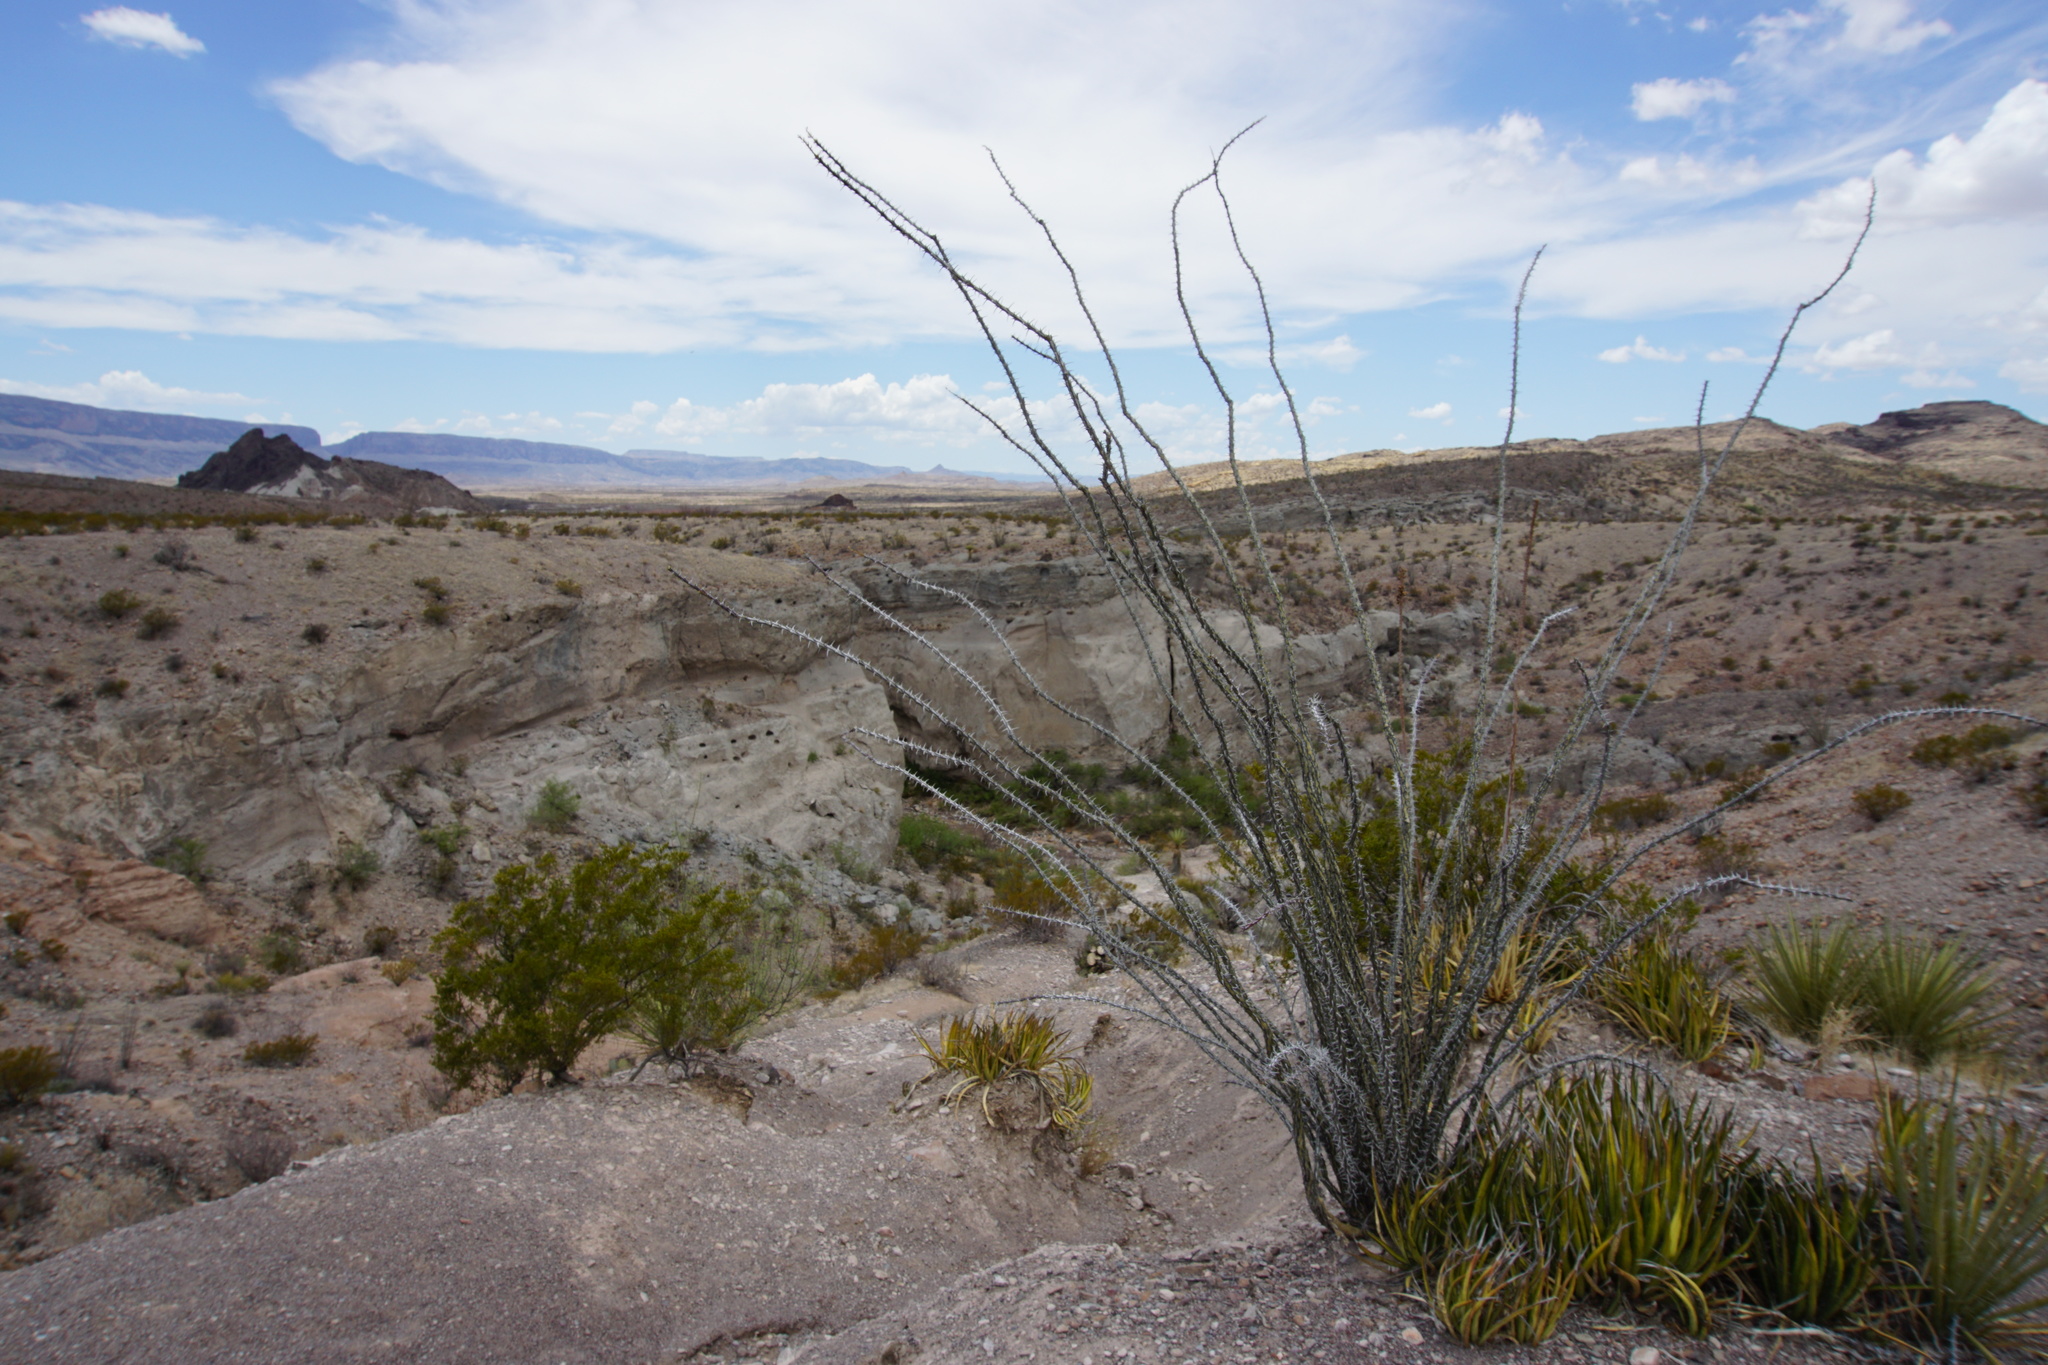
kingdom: Plantae
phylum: Tracheophyta
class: Magnoliopsida
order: Ericales
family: Fouquieriaceae
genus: Fouquieria
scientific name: Fouquieria splendens
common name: Vine-cactus
